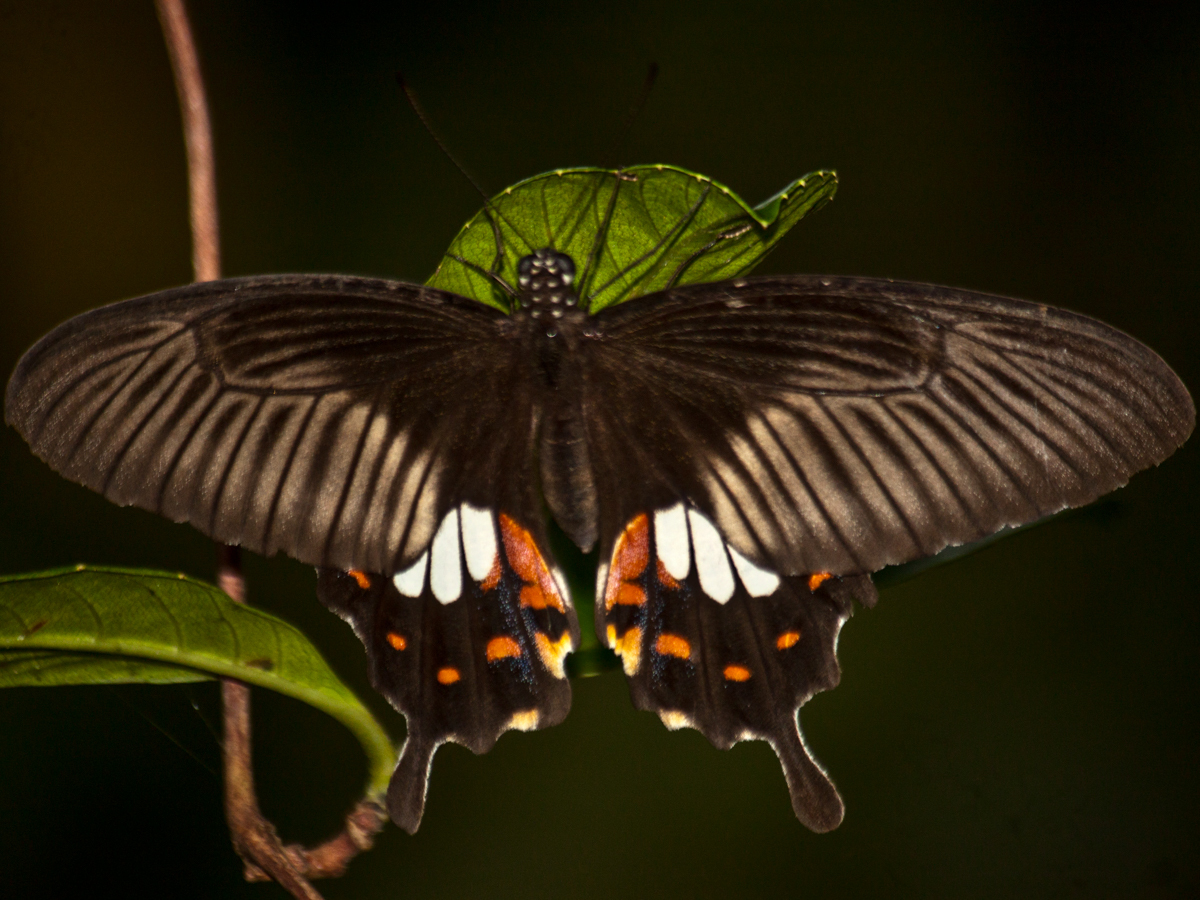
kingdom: Animalia
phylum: Arthropoda
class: Insecta
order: Lepidoptera
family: Papilionidae
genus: Papilio
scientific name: Papilio polytes
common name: Common mormon
